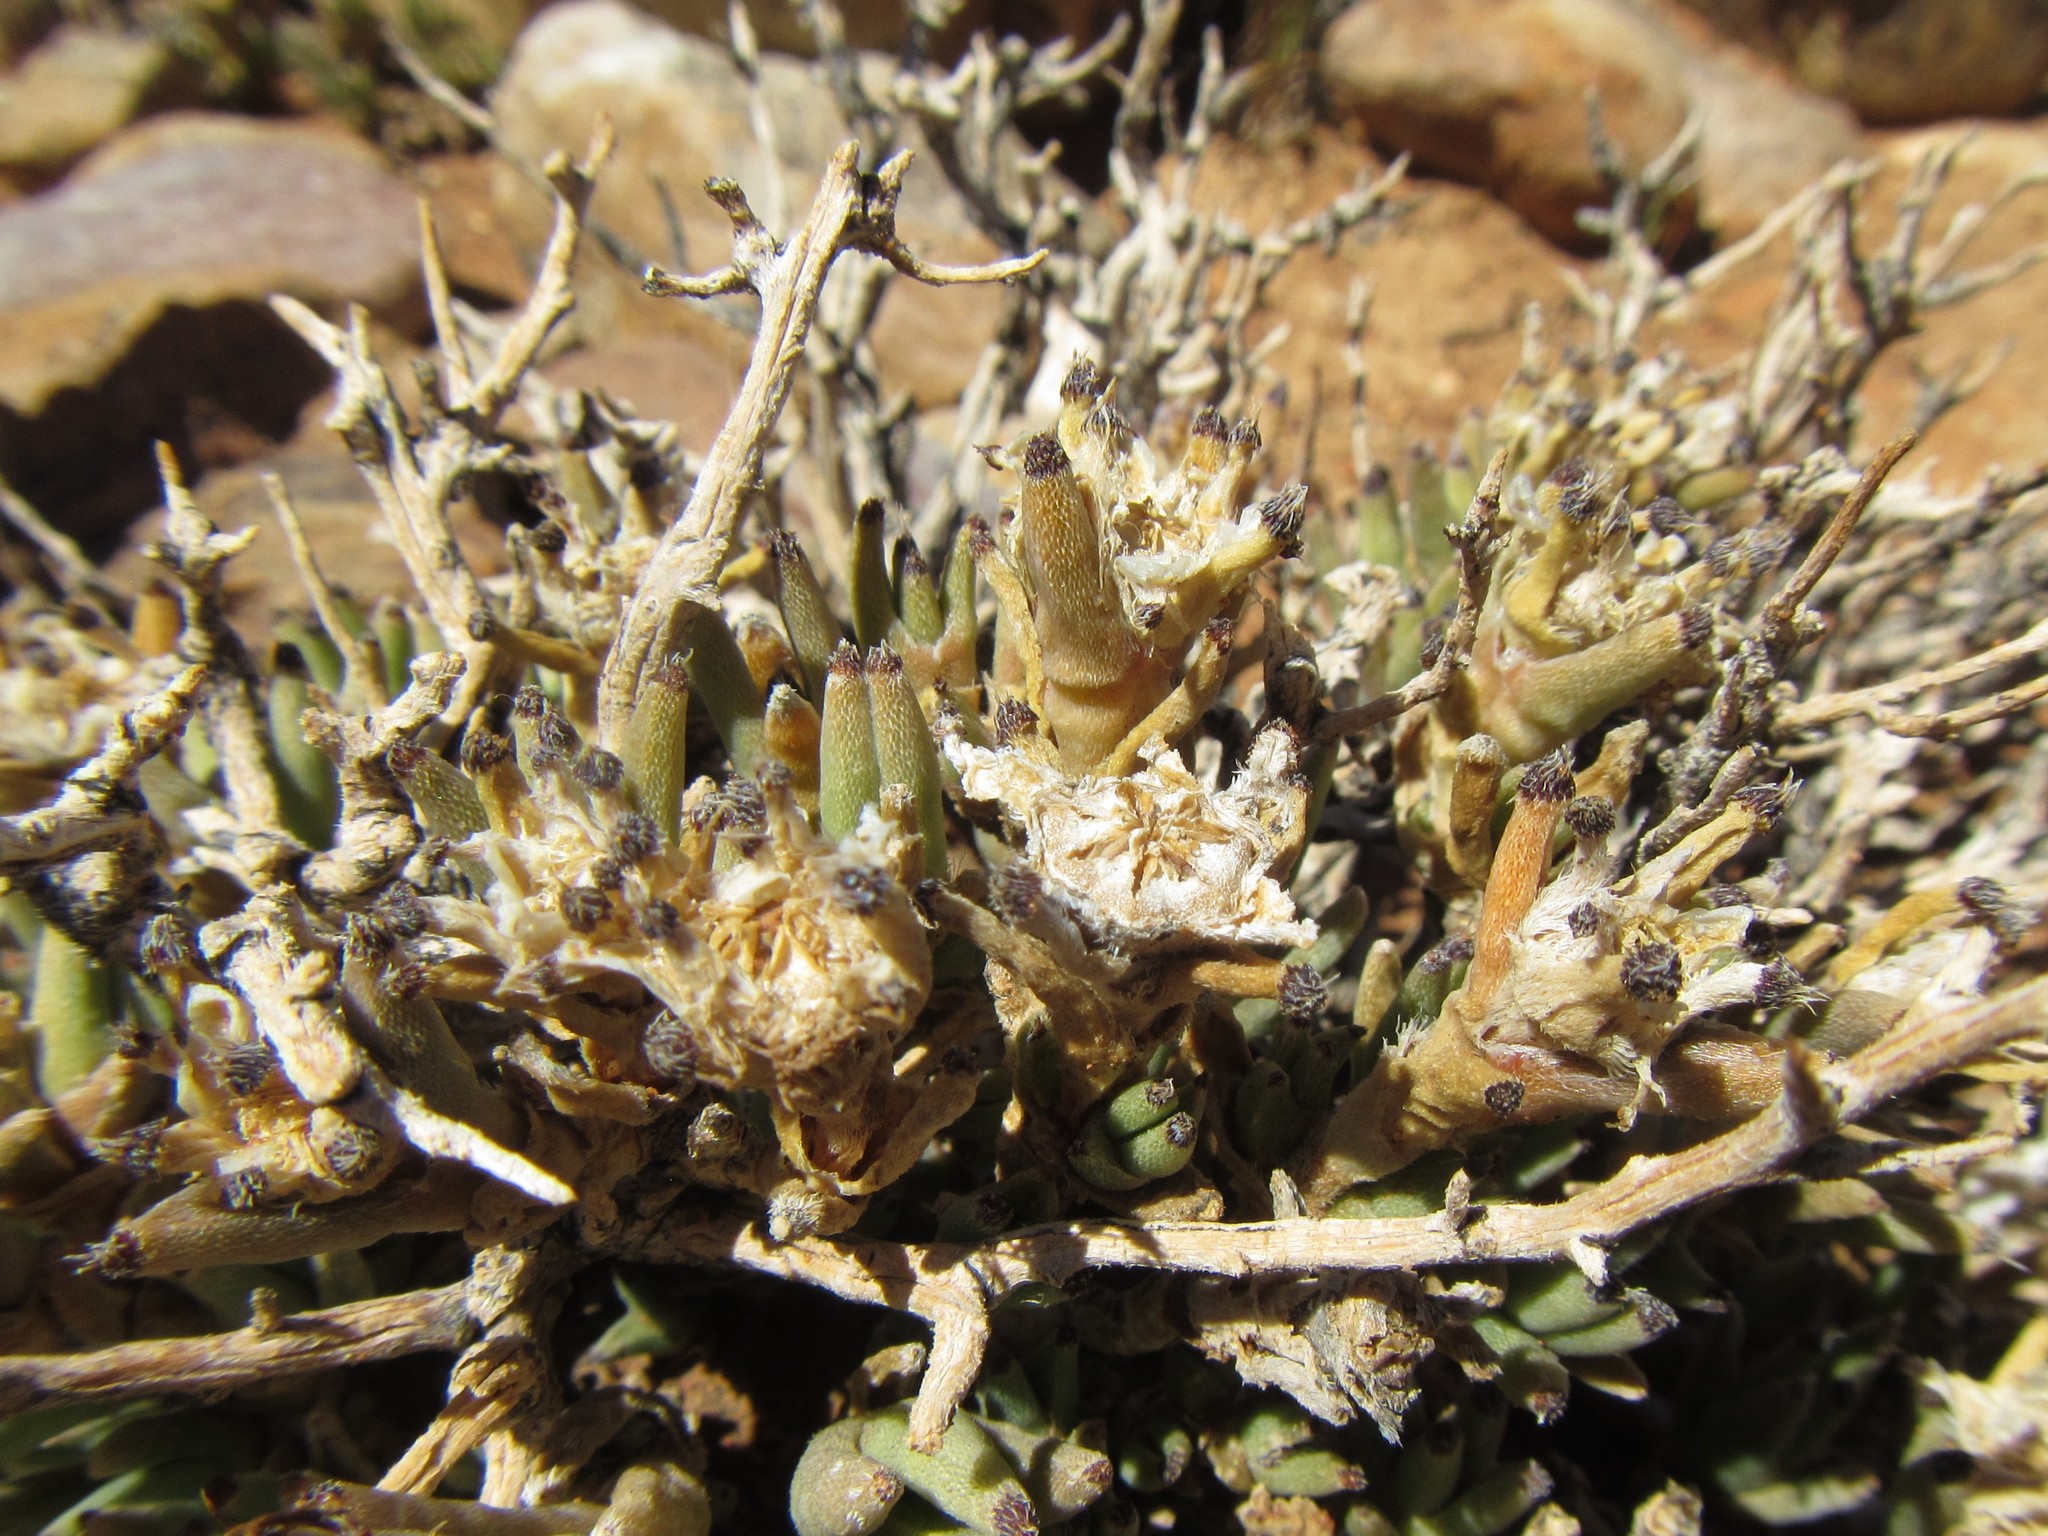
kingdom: Plantae
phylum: Tracheophyta
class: Magnoliopsida
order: Caryophyllales
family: Aizoaceae
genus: Trichodiadema
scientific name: Trichodiadema mirabile
